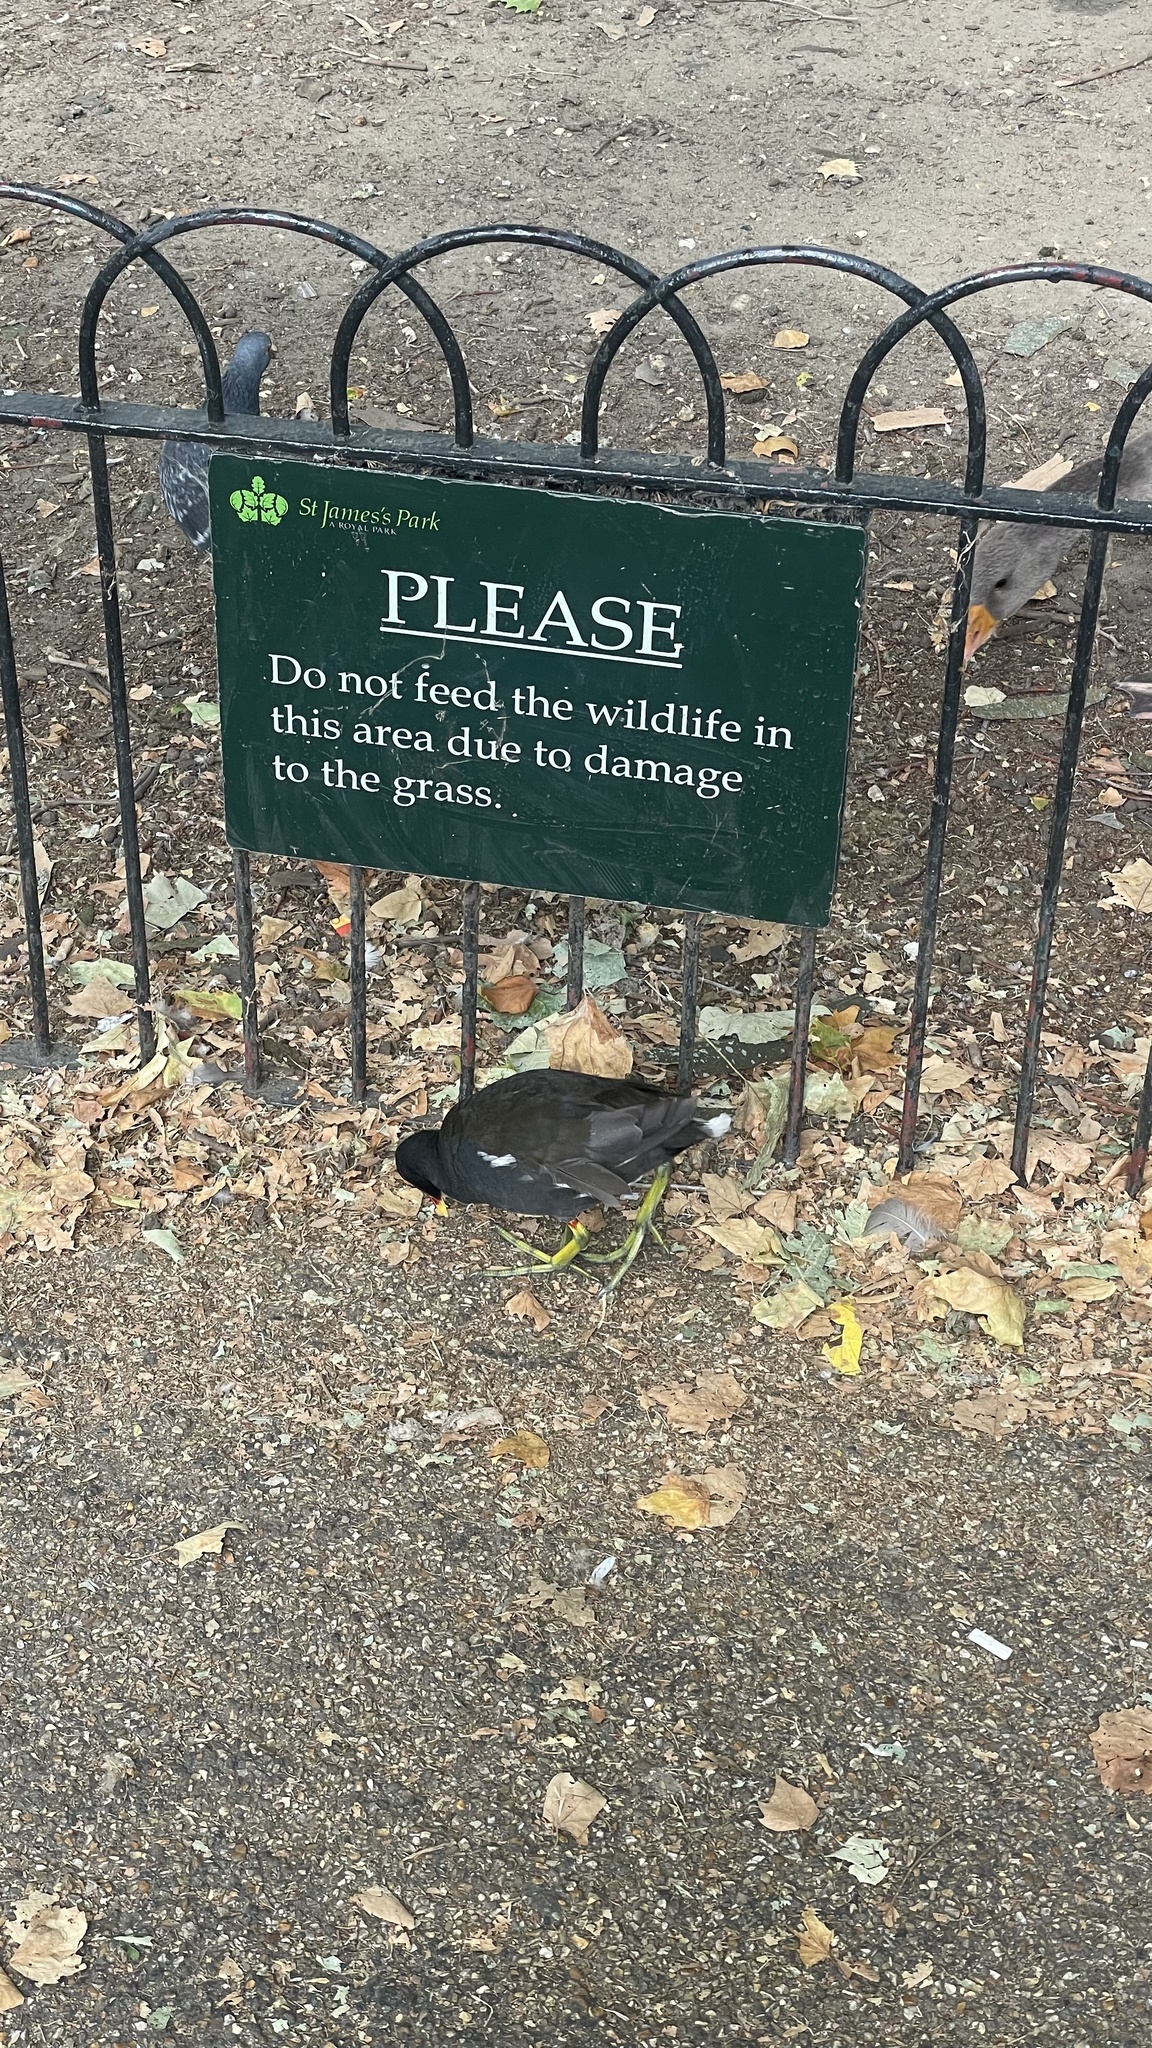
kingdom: Animalia
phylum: Chordata
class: Aves
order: Gruiformes
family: Rallidae
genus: Gallinula
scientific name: Gallinula chloropus
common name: Common moorhen
